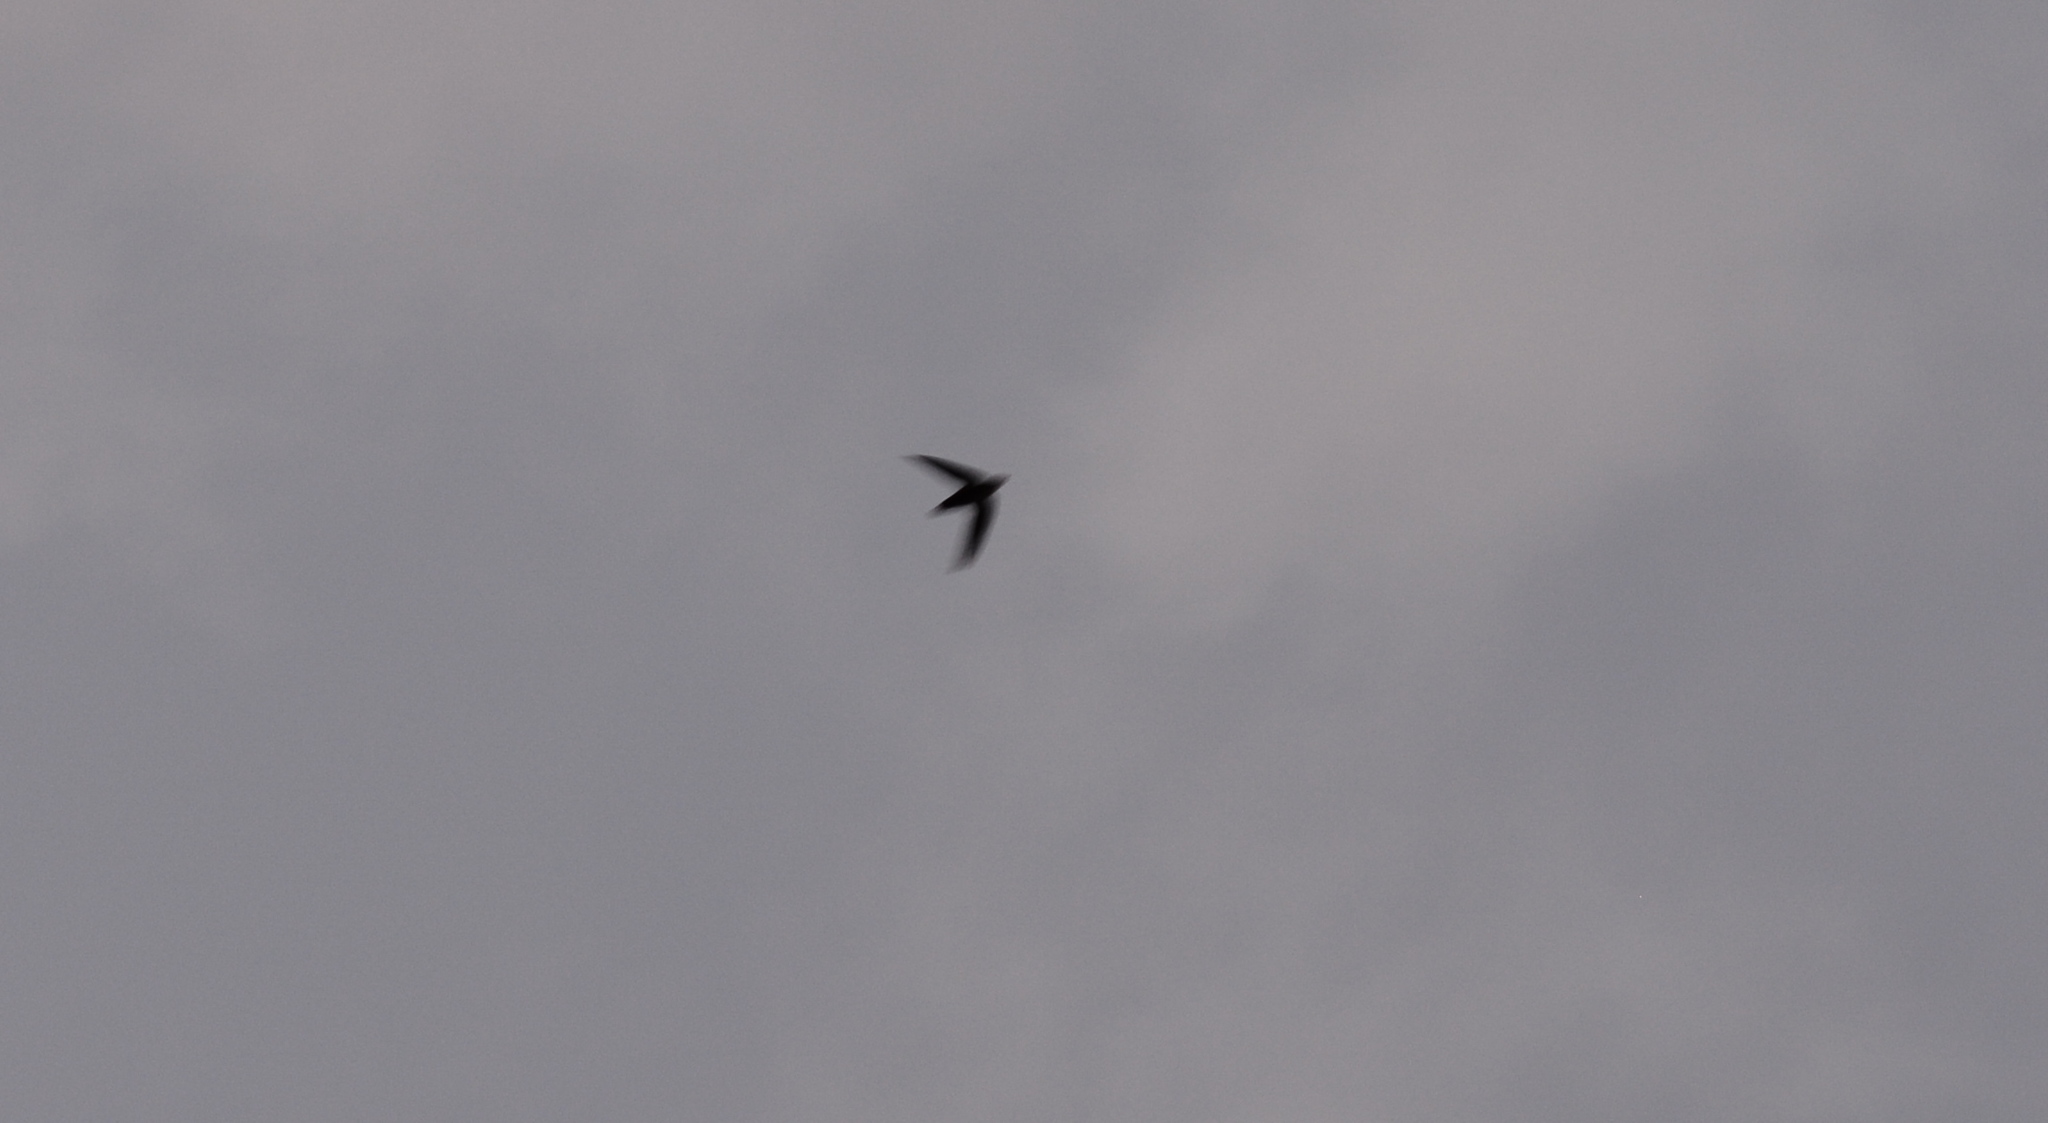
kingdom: Animalia
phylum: Chordata
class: Aves
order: Apodiformes
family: Apodidae
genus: Chaetura
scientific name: Chaetura pelagica
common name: Chimney swift
